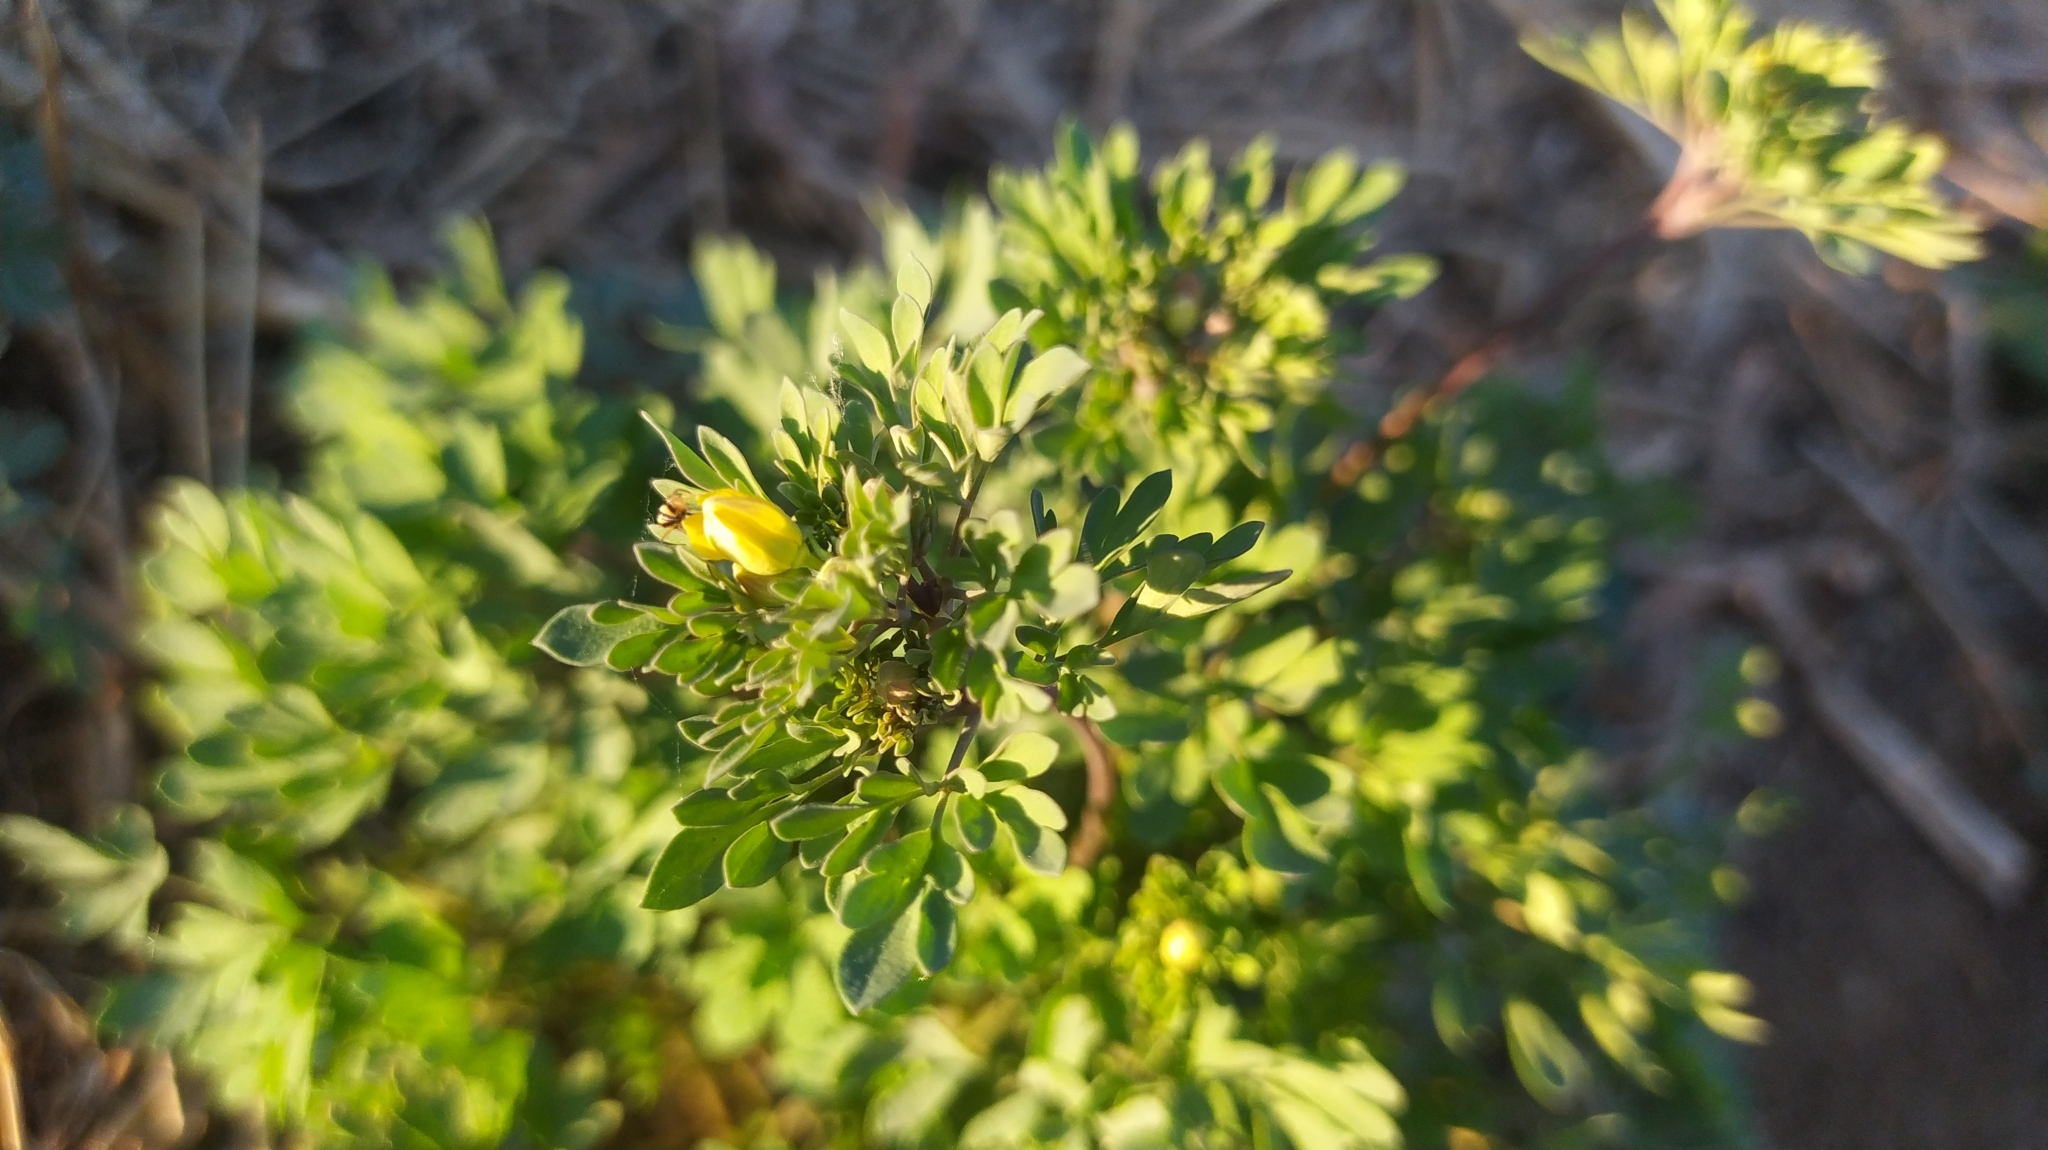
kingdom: Plantae
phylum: Tracheophyta
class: Magnoliopsida
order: Ranunculales
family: Ranunculaceae
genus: Leptopyrum
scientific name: Leptopyrum fumarioides
